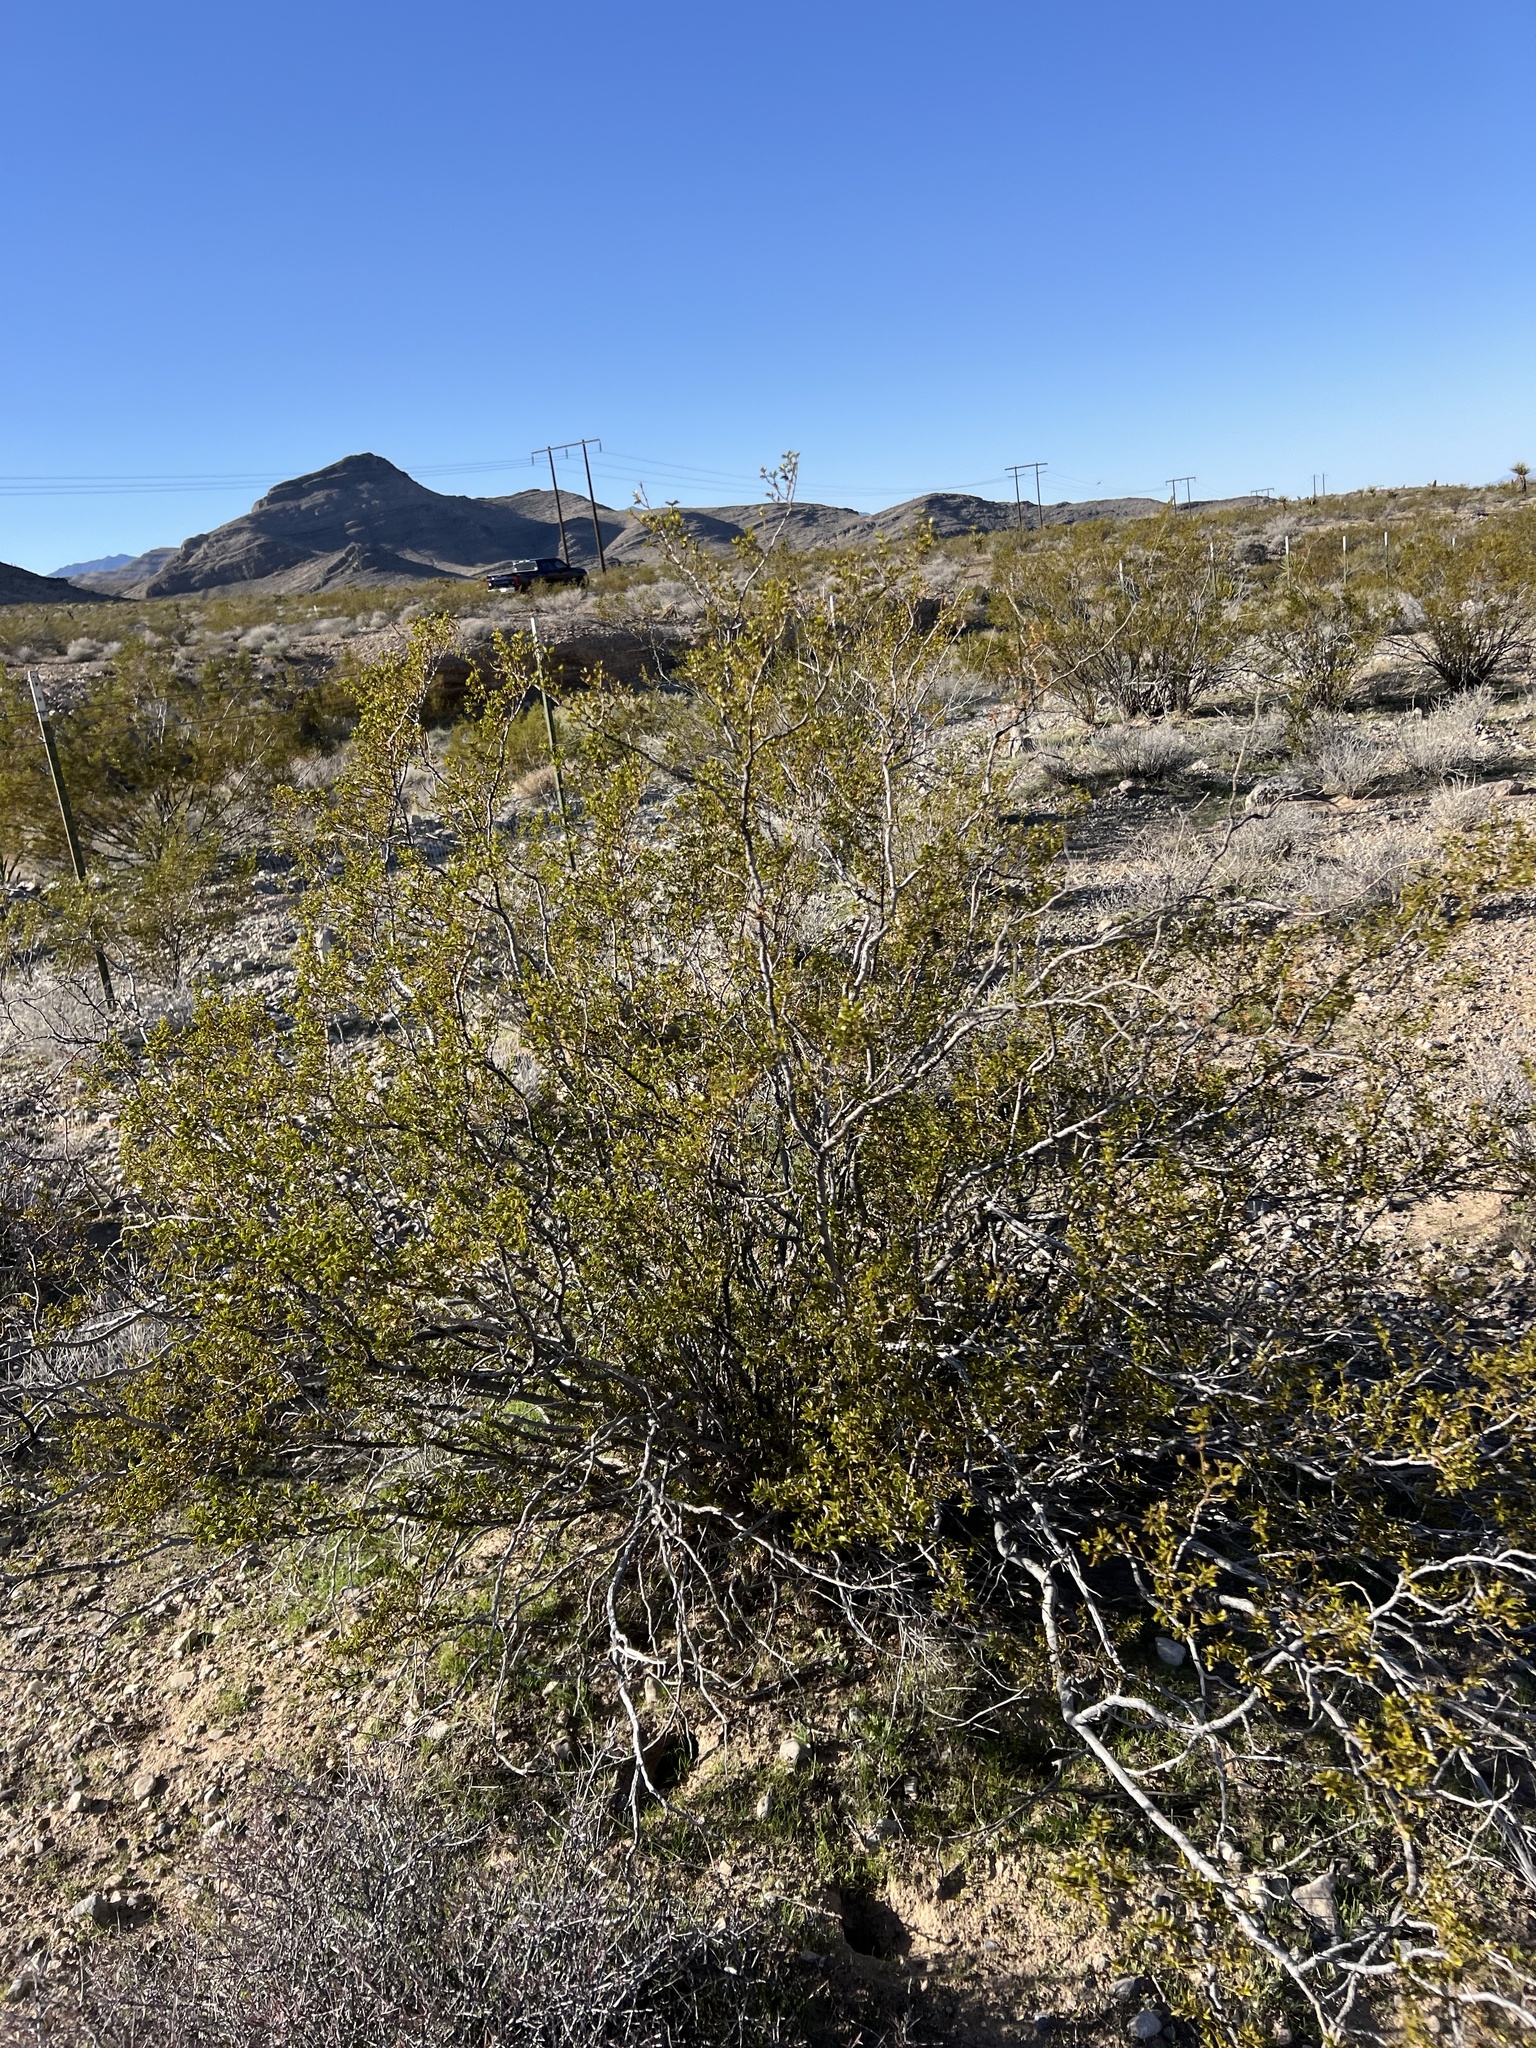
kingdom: Plantae
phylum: Tracheophyta
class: Magnoliopsida
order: Zygophyllales
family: Zygophyllaceae
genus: Larrea
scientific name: Larrea tridentata
